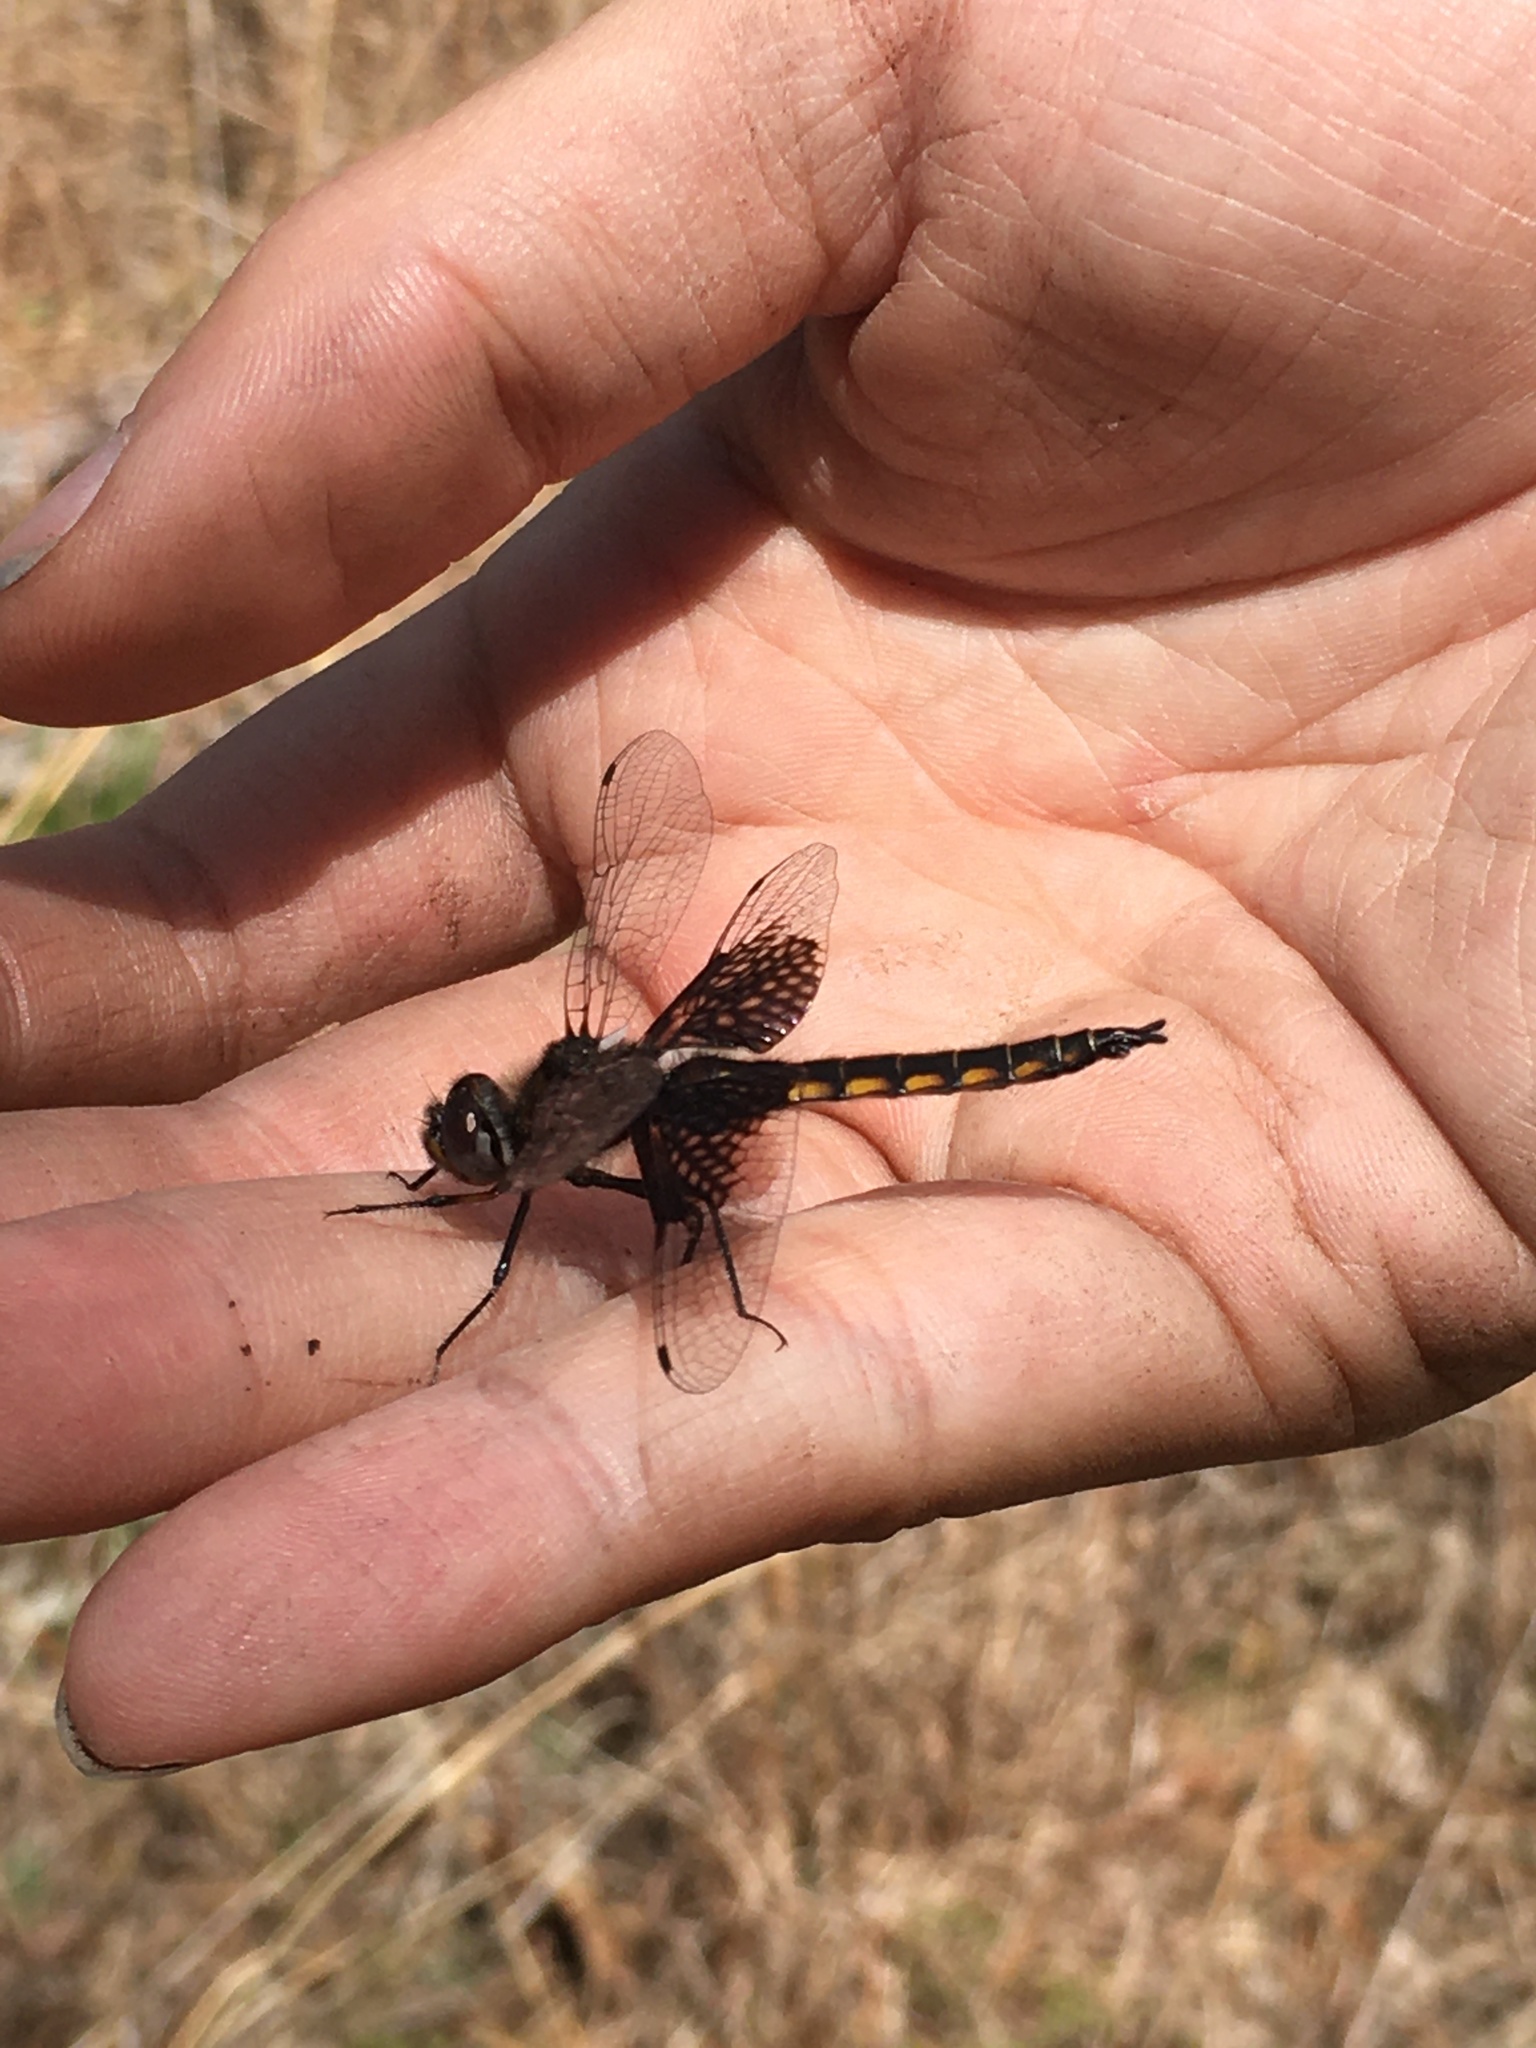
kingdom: Animalia
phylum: Arthropoda
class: Insecta
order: Odonata
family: Corduliidae
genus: Epitheca
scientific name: Epitheca semiaquea
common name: Mantled baskettail
